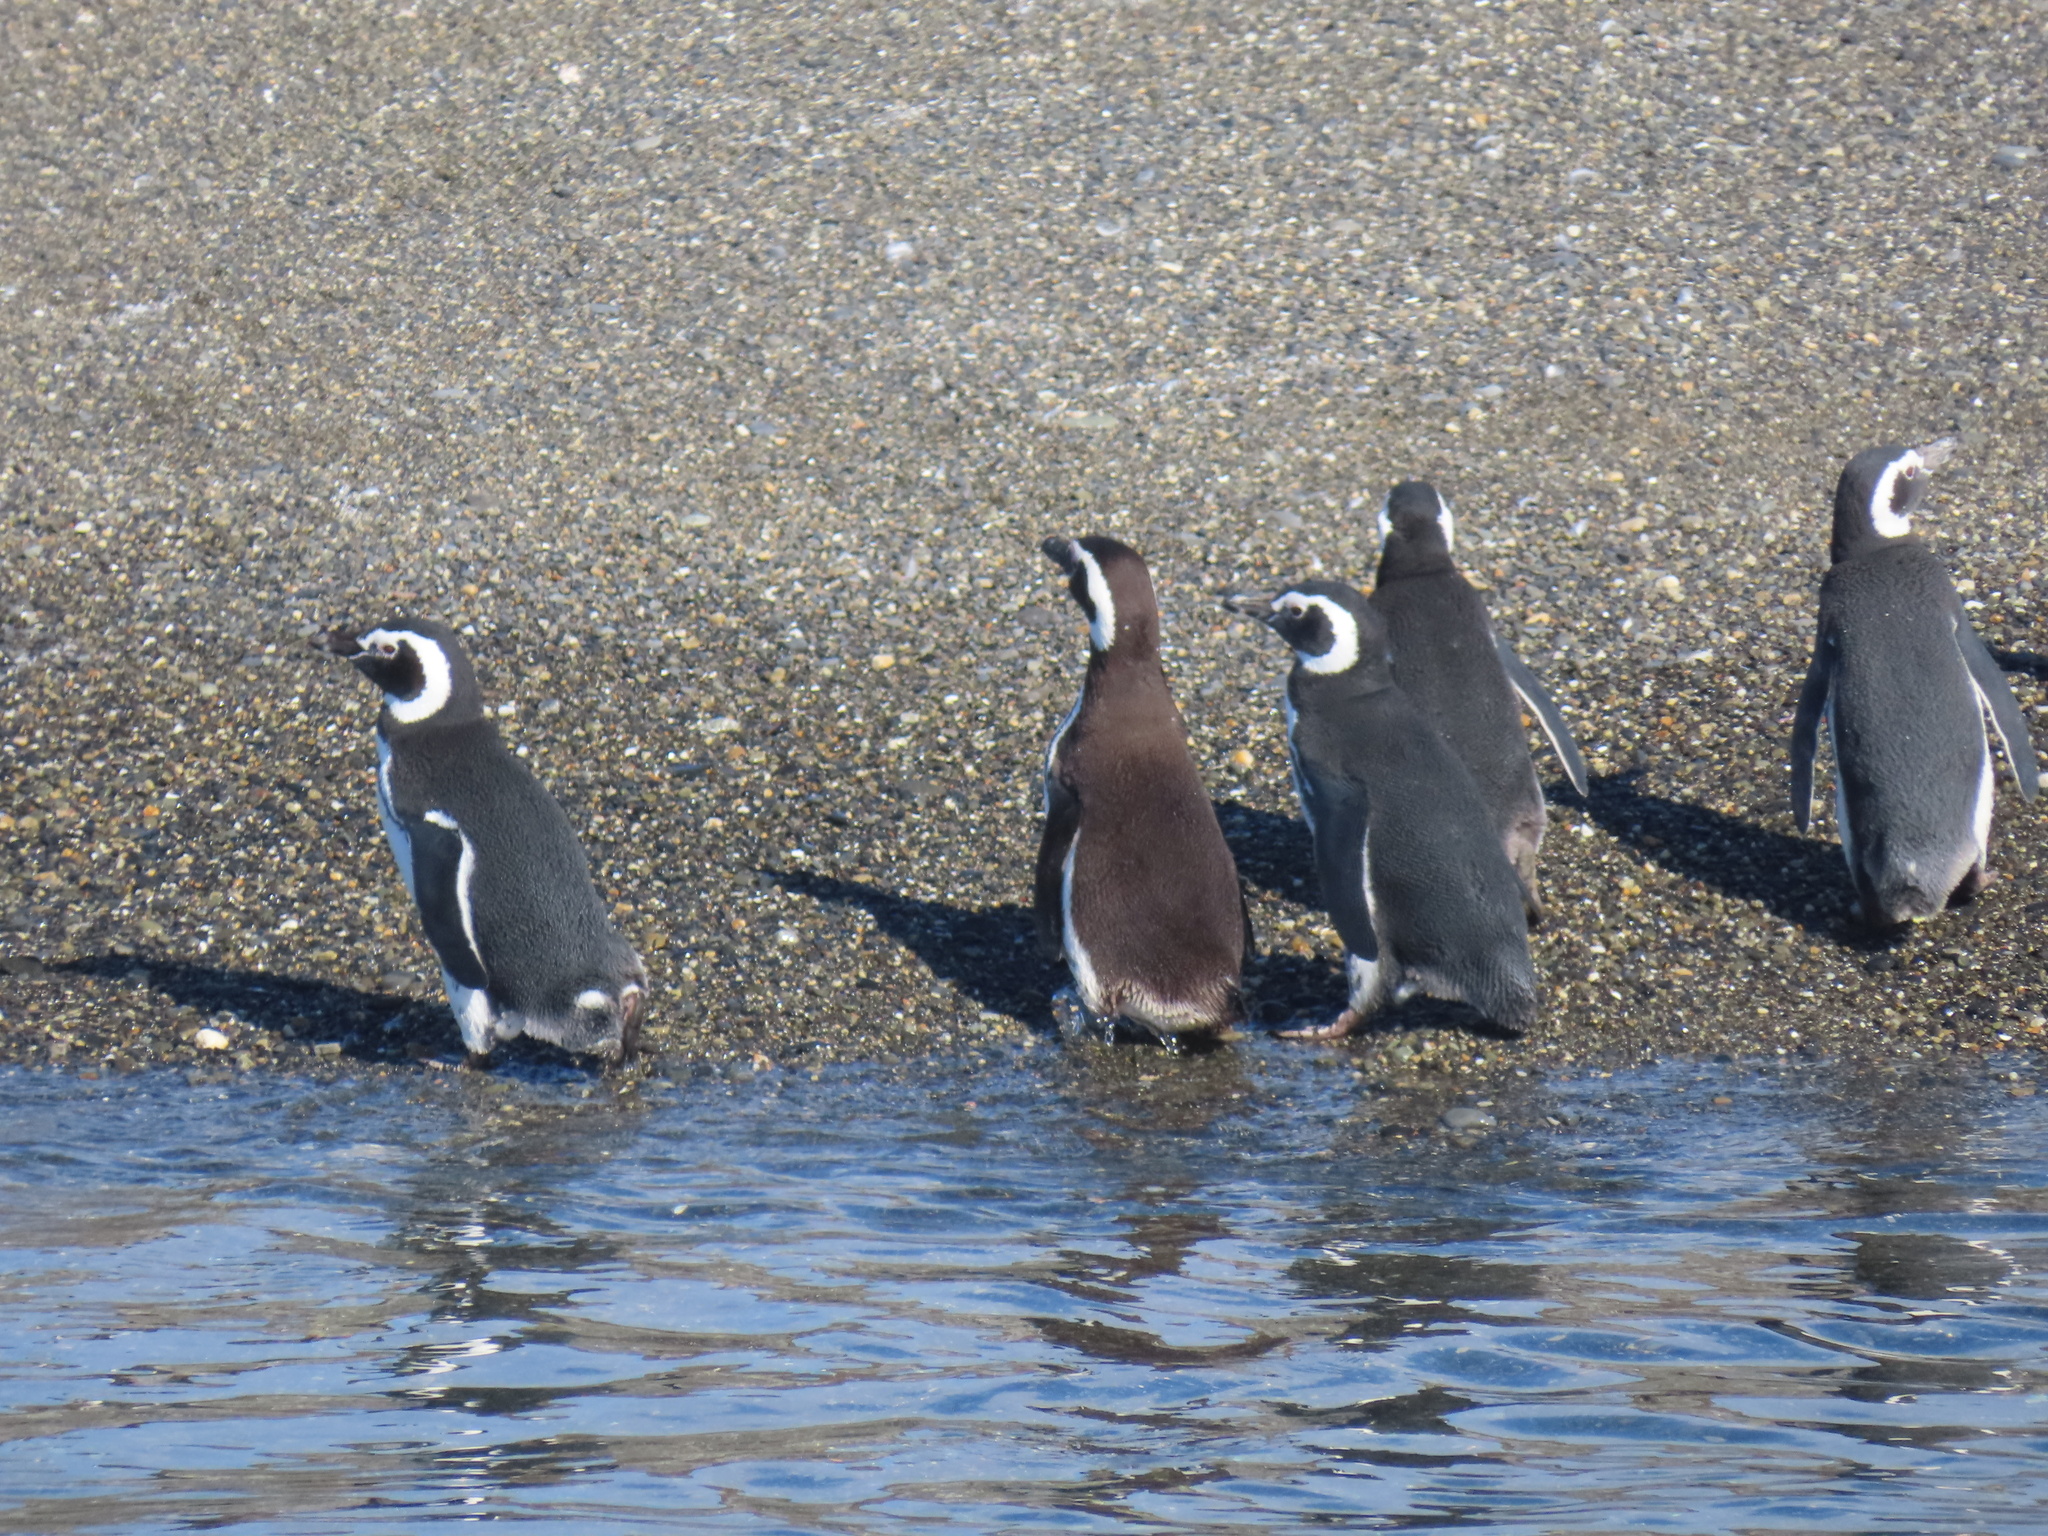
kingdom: Animalia
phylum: Chordata
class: Aves
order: Sphenisciformes
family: Spheniscidae
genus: Spheniscus
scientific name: Spheniscus magellanicus
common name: Magellanic penguin
